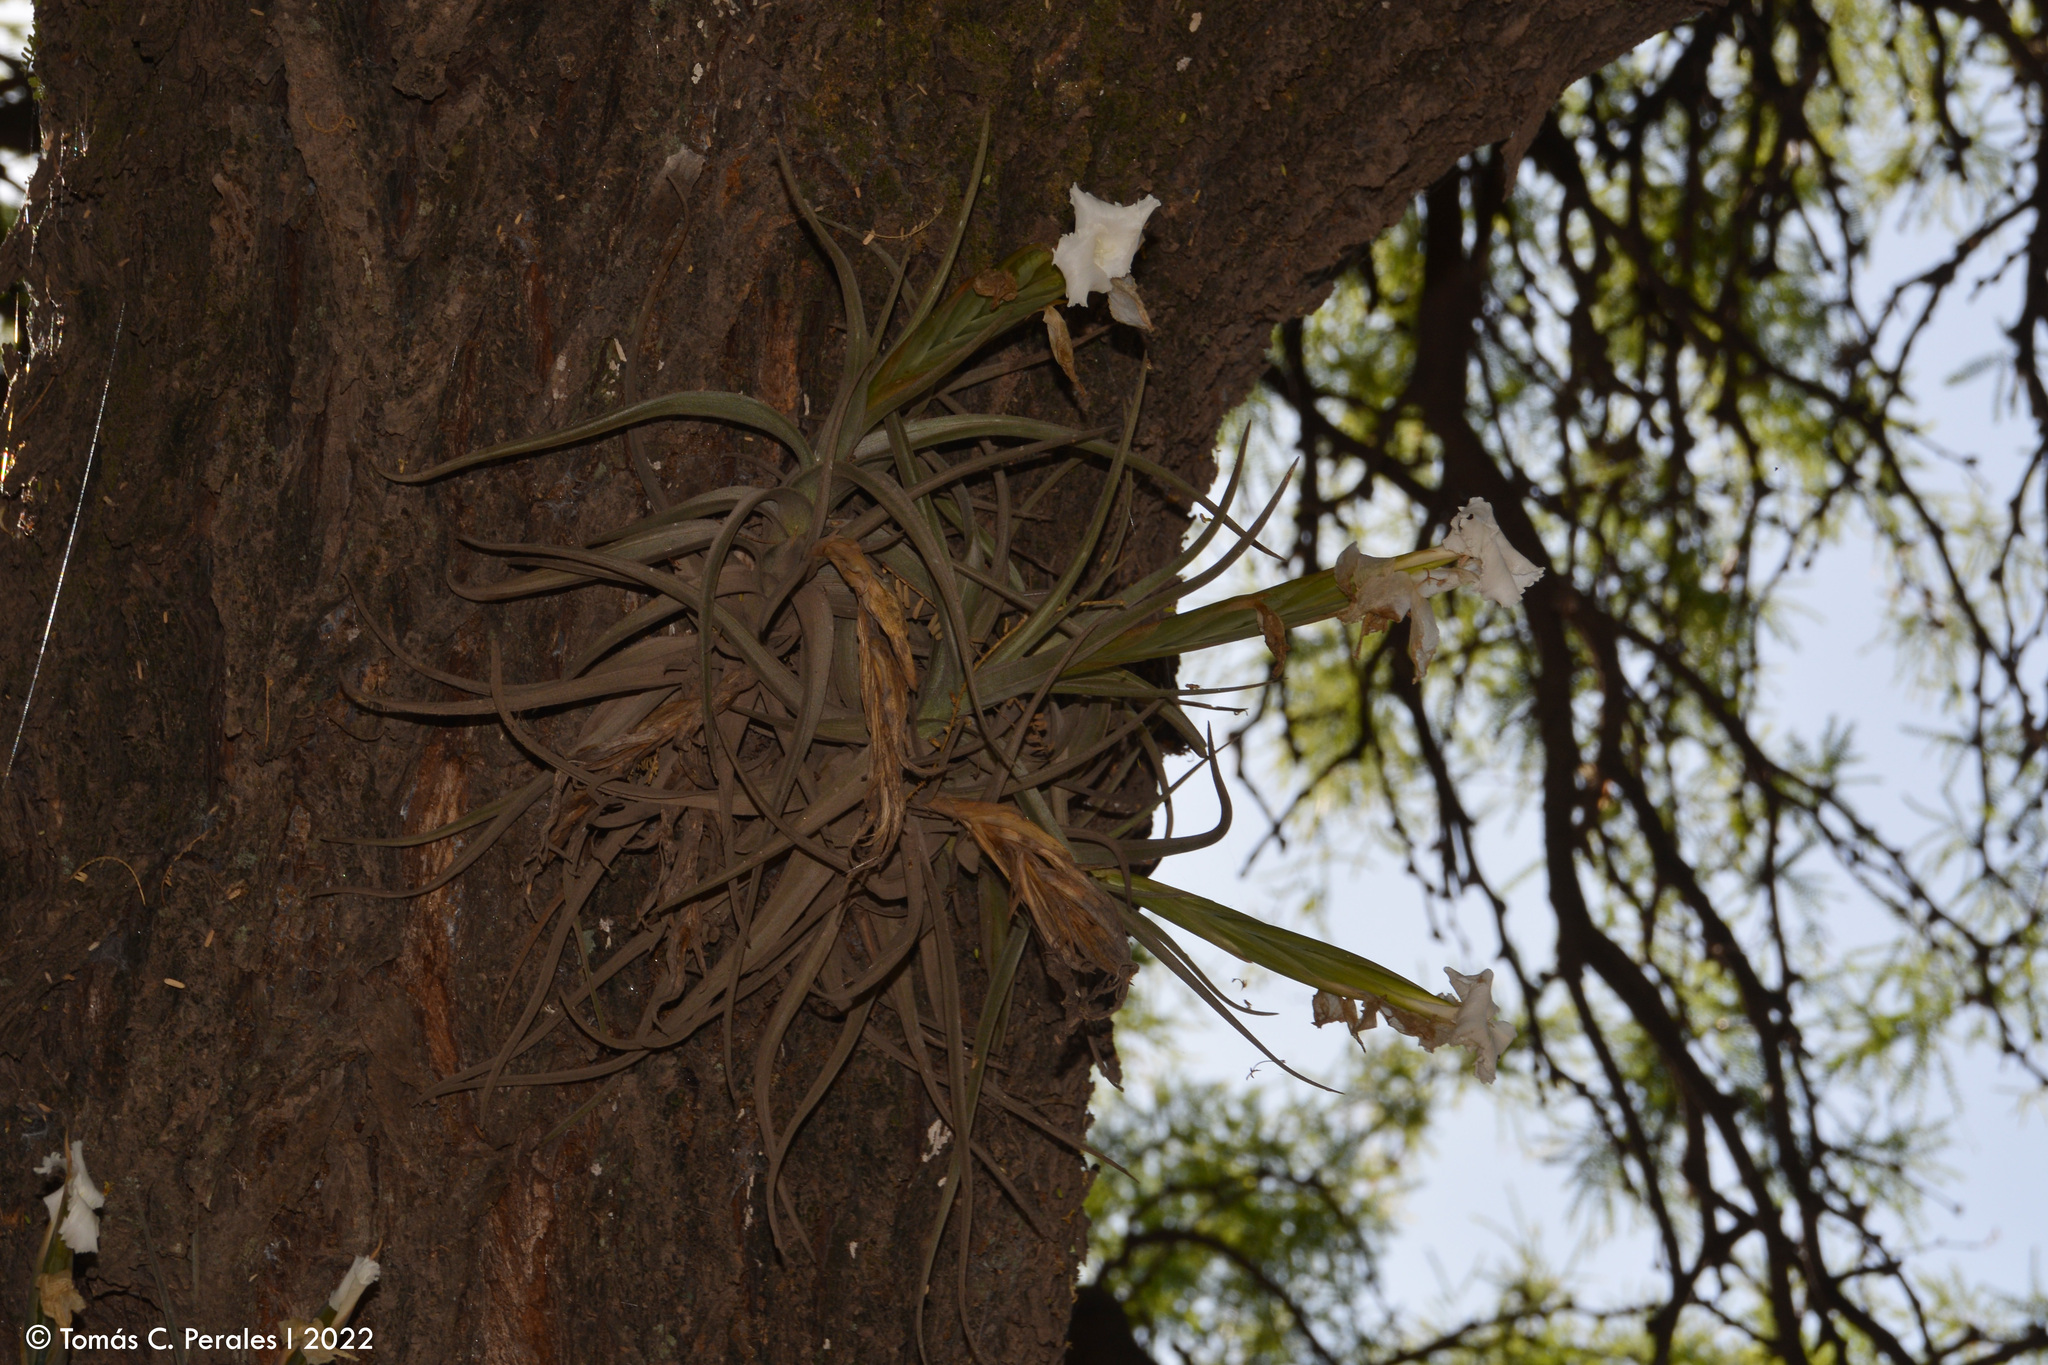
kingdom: Plantae
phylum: Tracheophyta
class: Liliopsida
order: Poales
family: Bromeliaceae
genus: Tillandsia
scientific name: Tillandsia xiphioides
